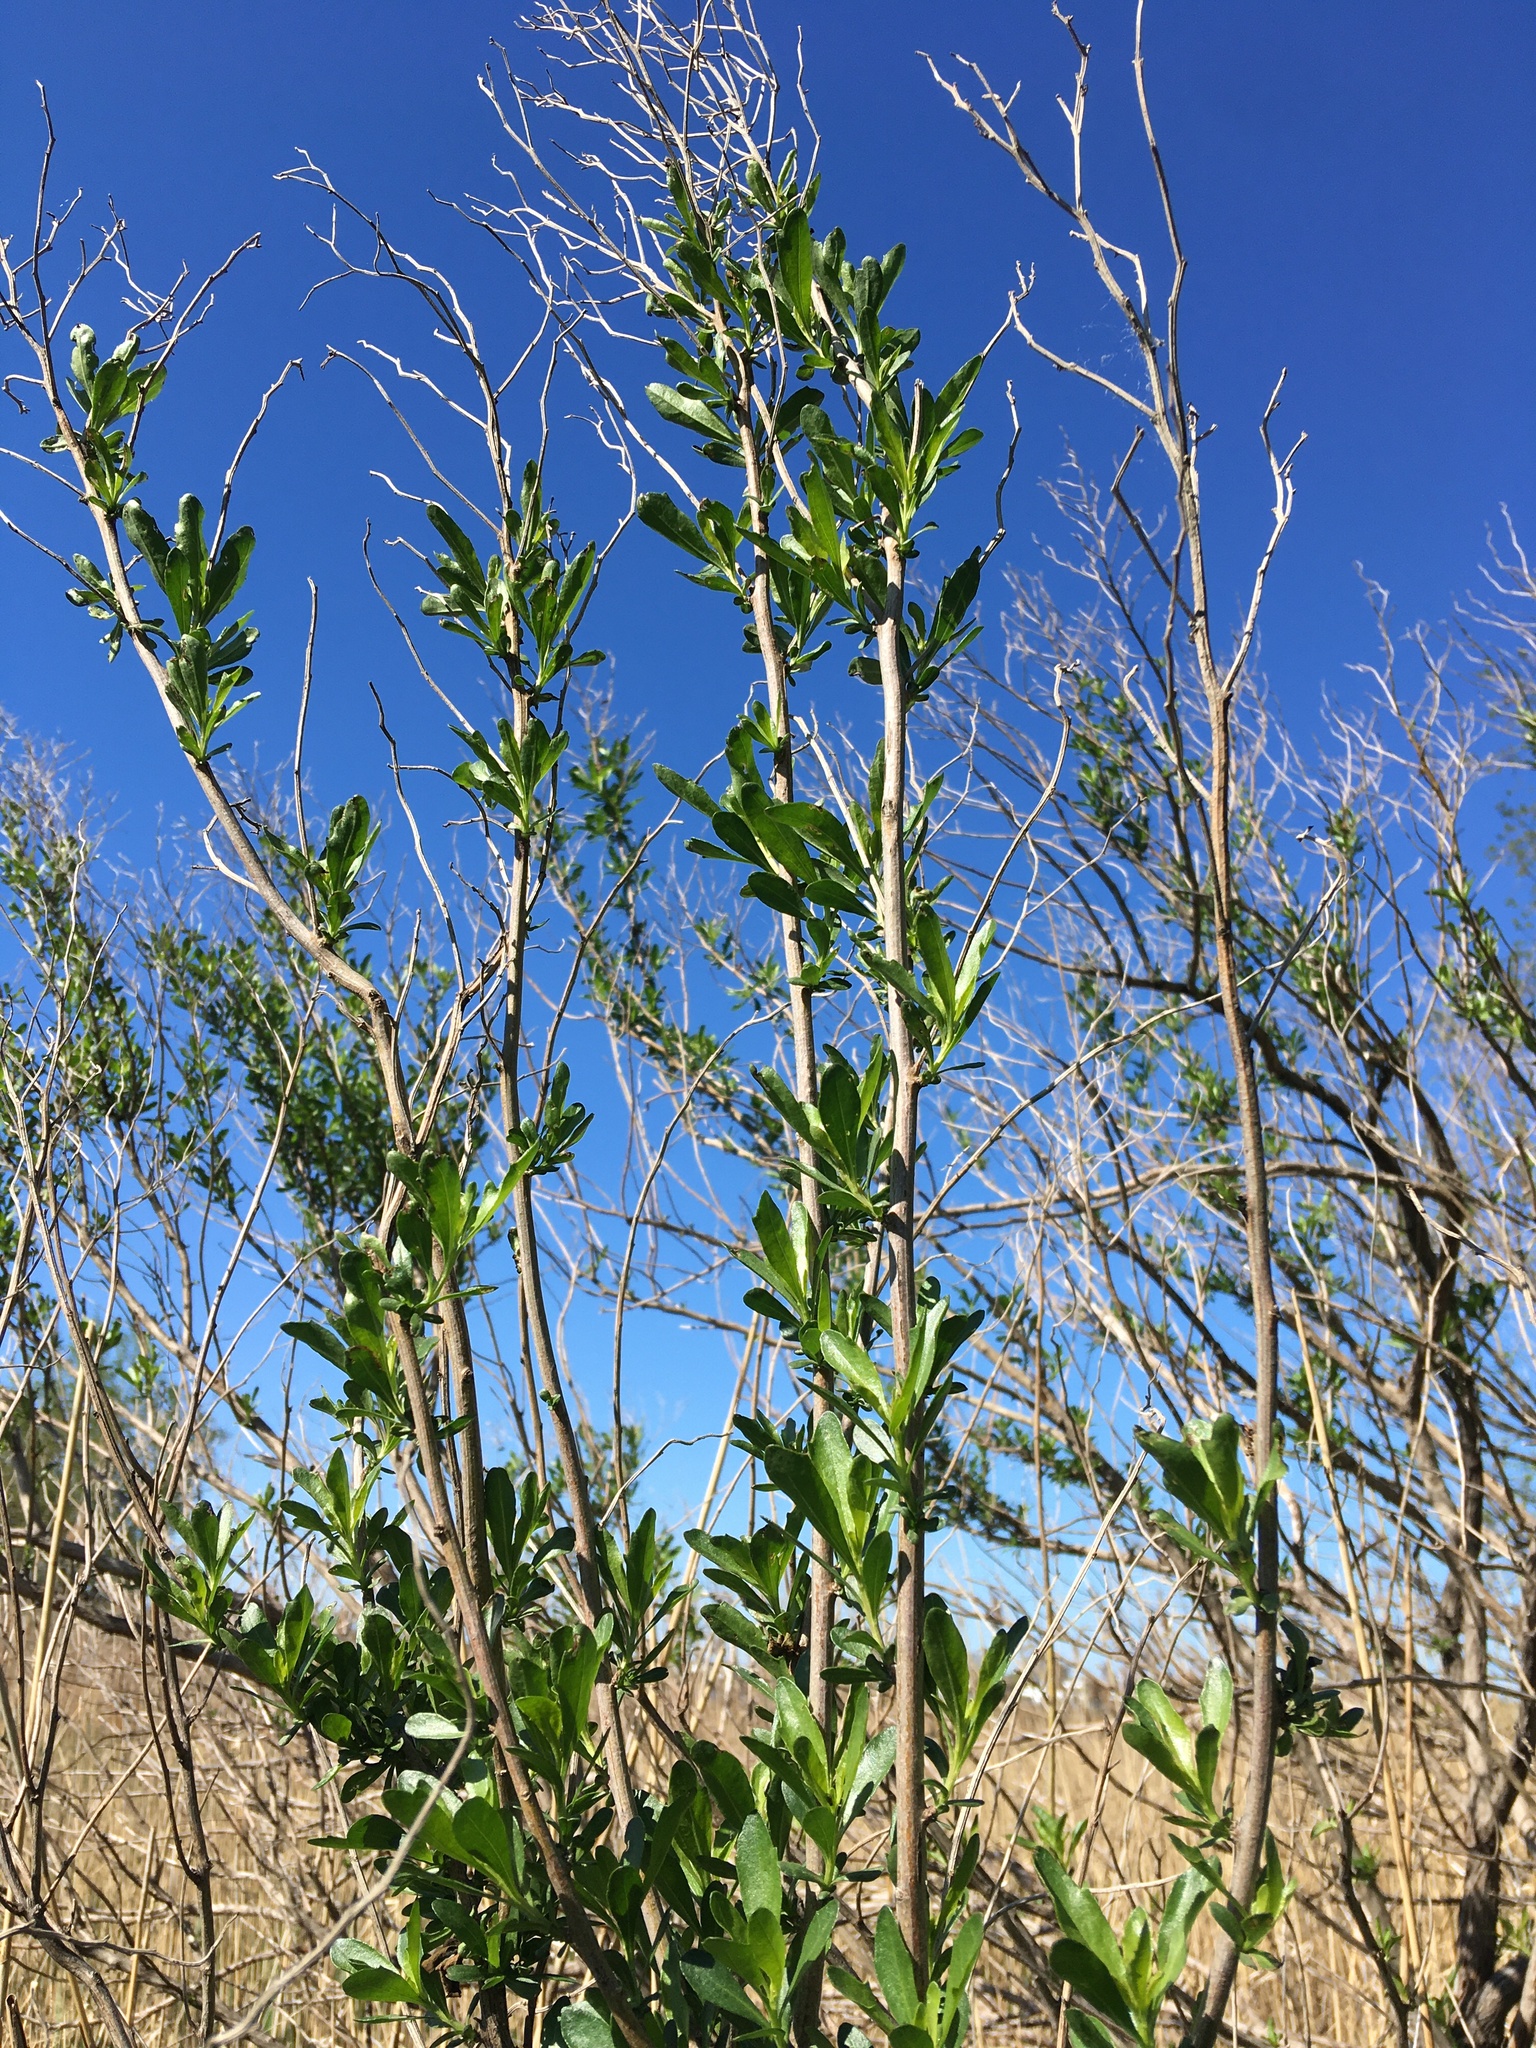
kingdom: Plantae
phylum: Tracheophyta
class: Magnoliopsida
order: Asterales
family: Asteraceae
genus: Baccharis
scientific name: Baccharis halimifolia
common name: Eastern baccharis
